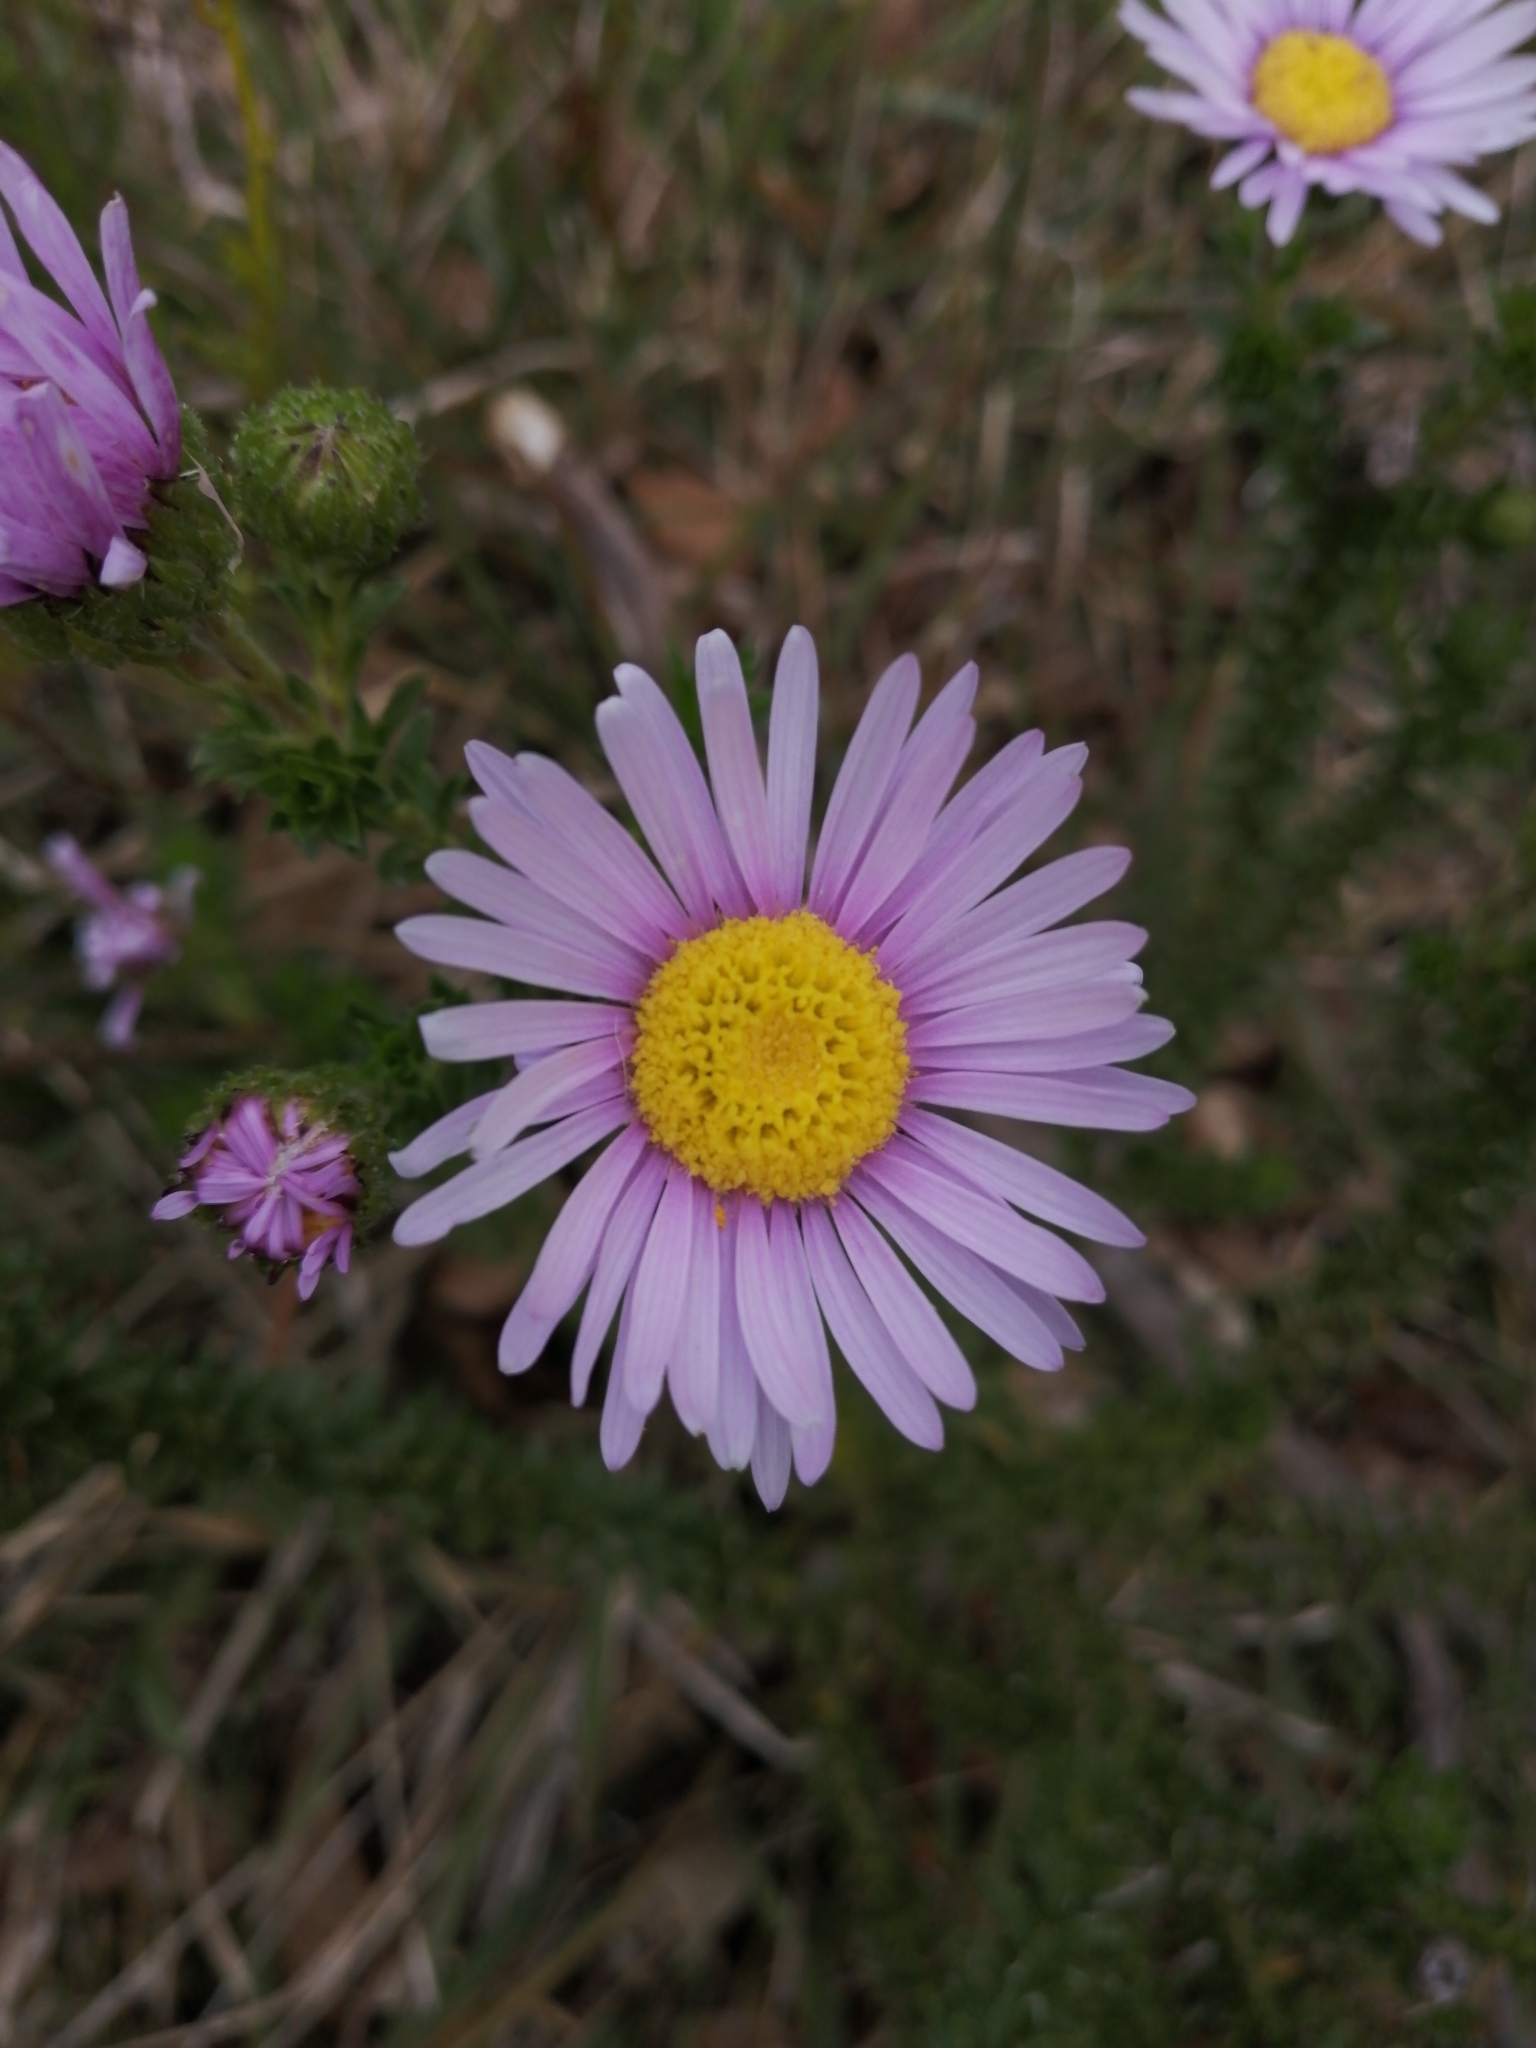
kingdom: Plantae
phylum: Tracheophyta
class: Magnoliopsida
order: Asterales
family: Asteraceae
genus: Felicia
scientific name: Felicia echinata
